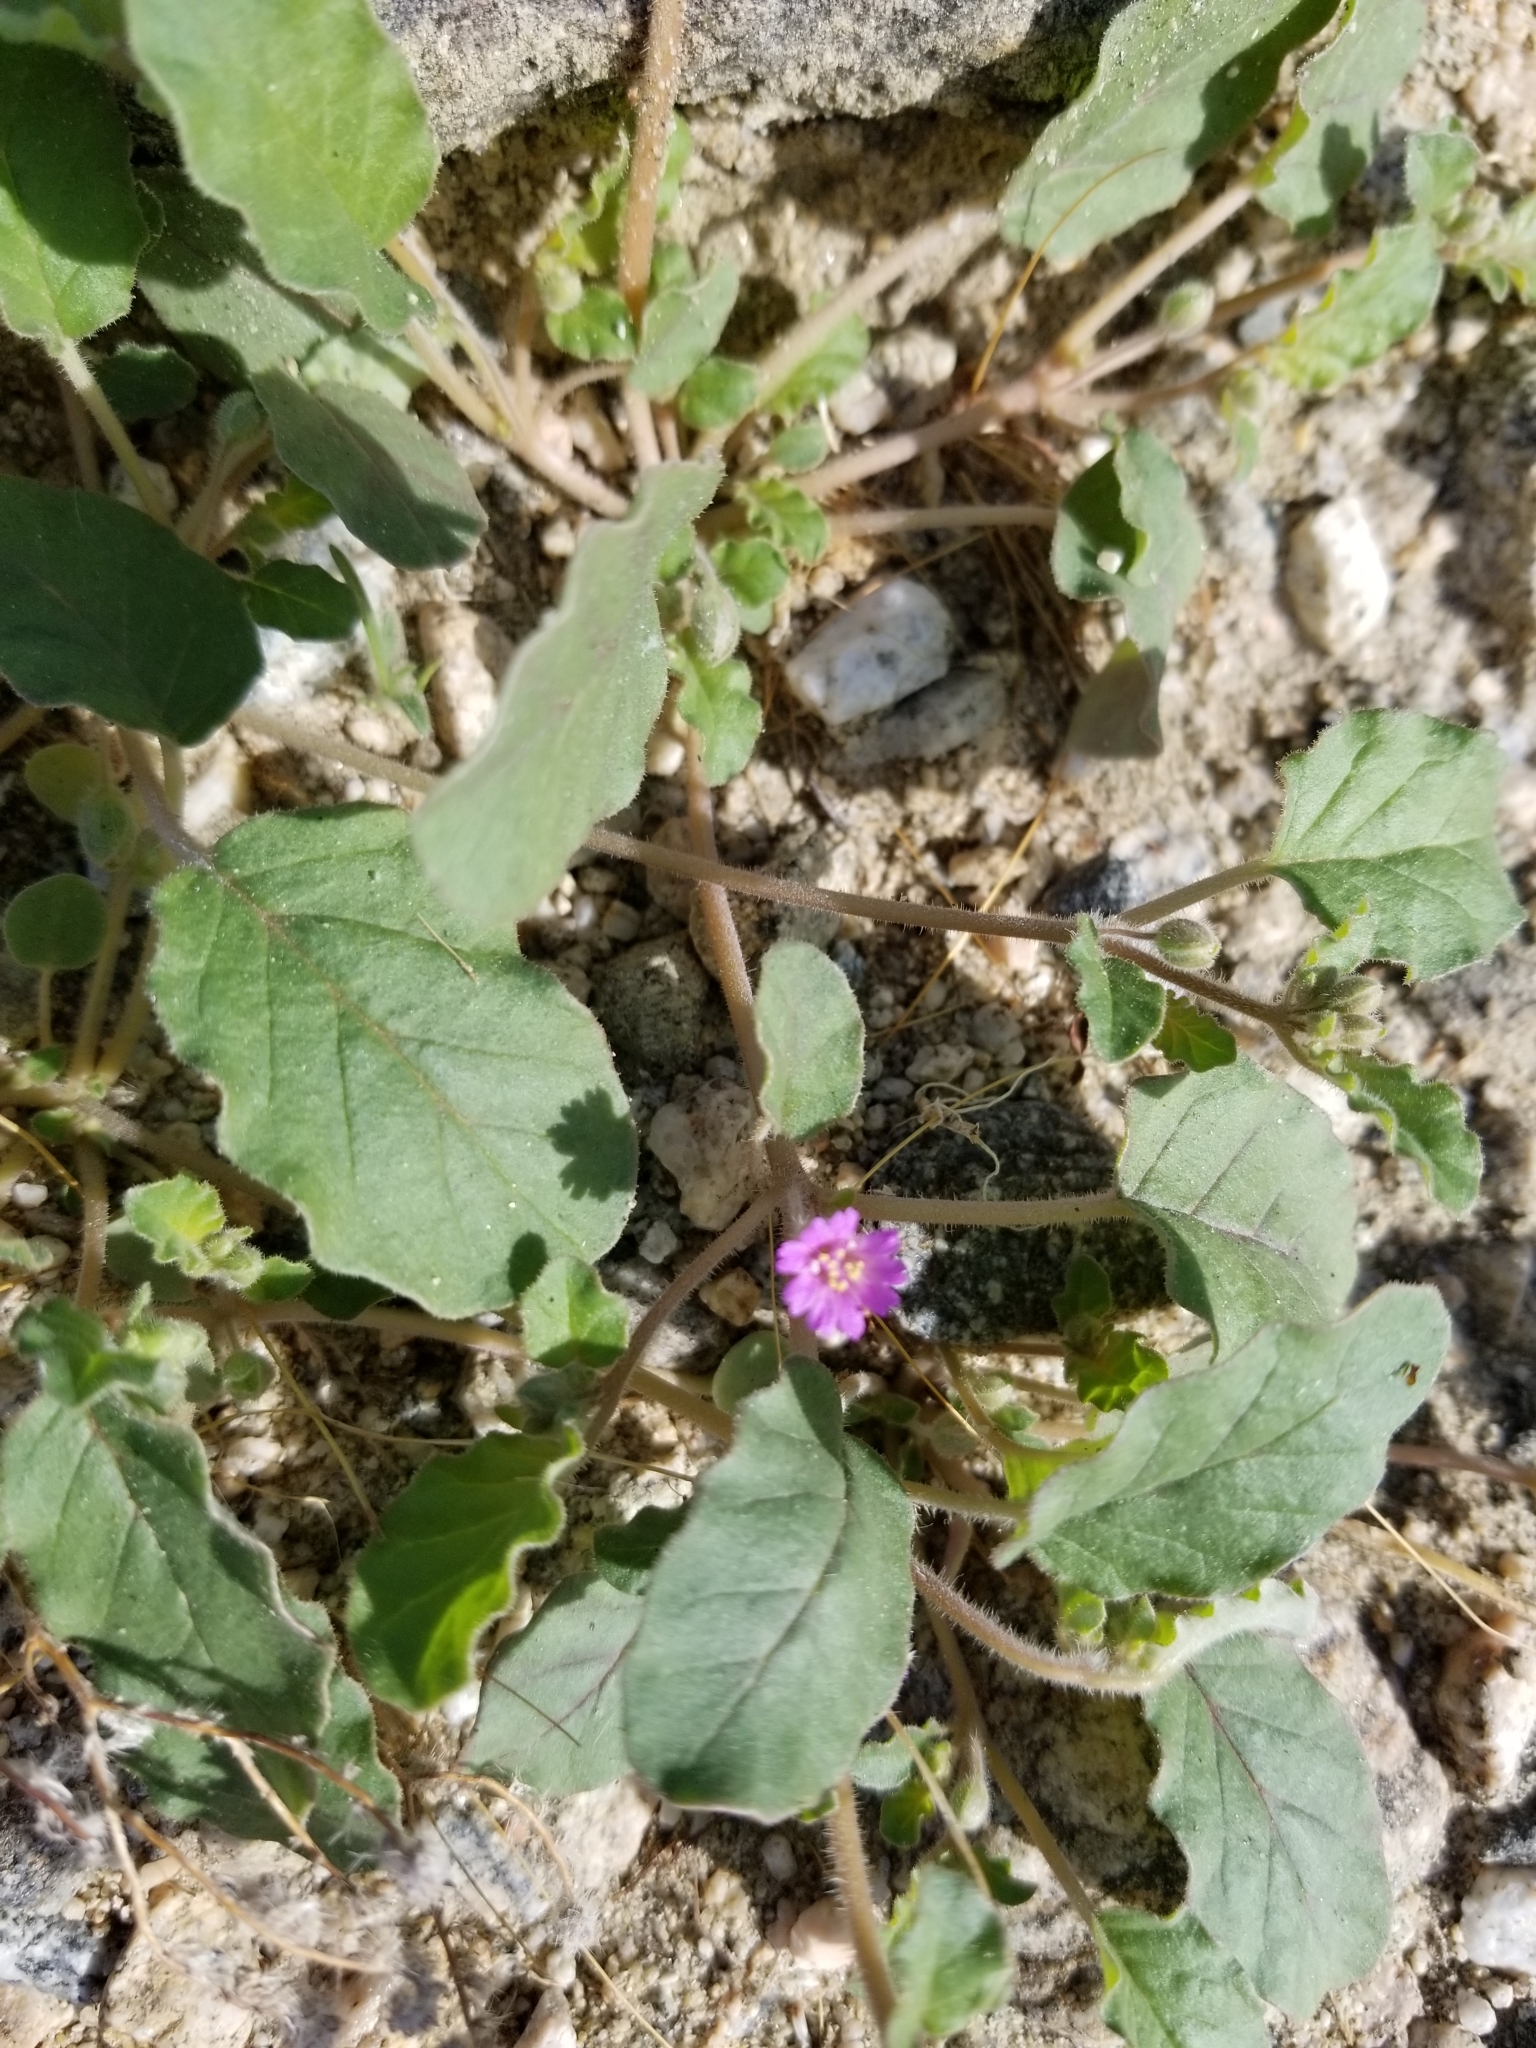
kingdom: Plantae
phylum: Tracheophyta
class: Magnoliopsida
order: Caryophyllales
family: Nyctaginaceae
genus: Allionia
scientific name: Allionia incarnata
